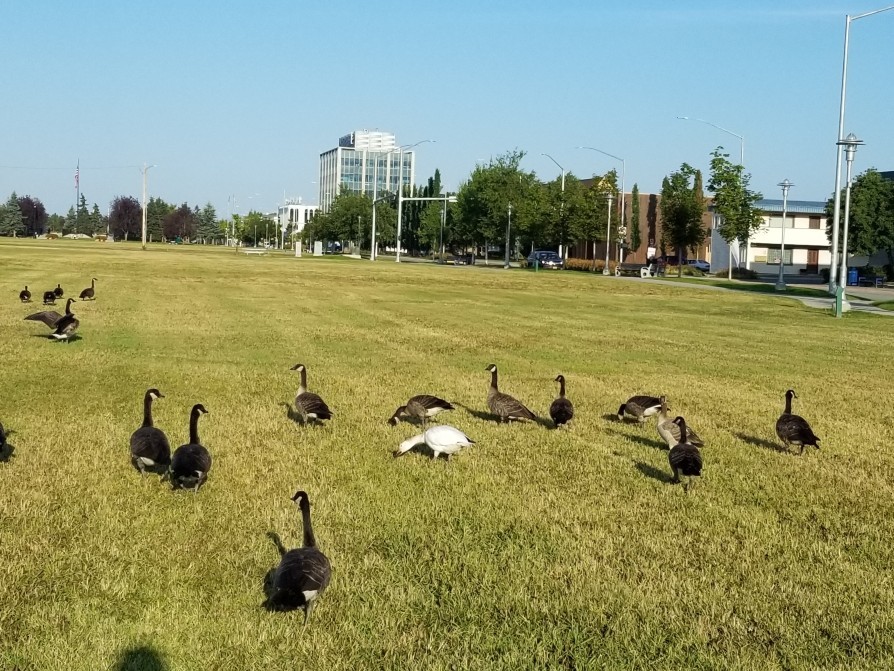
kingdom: Animalia
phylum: Chordata
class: Aves
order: Anseriformes
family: Anatidae
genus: Anser
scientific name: Anser caerulescens
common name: Snow goose
